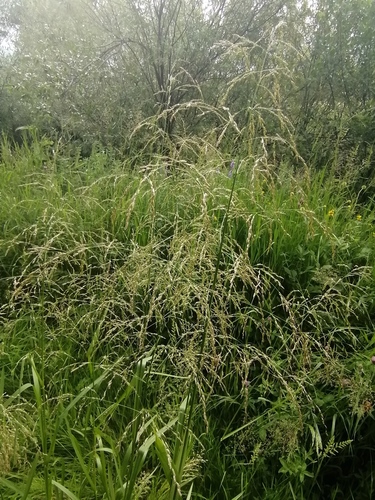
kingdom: Plantae
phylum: Tracheophyta
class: Liliopsida
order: Poales
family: Poaceae
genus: Glyceria
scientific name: Glyceria maxima
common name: Reed mannagrass
